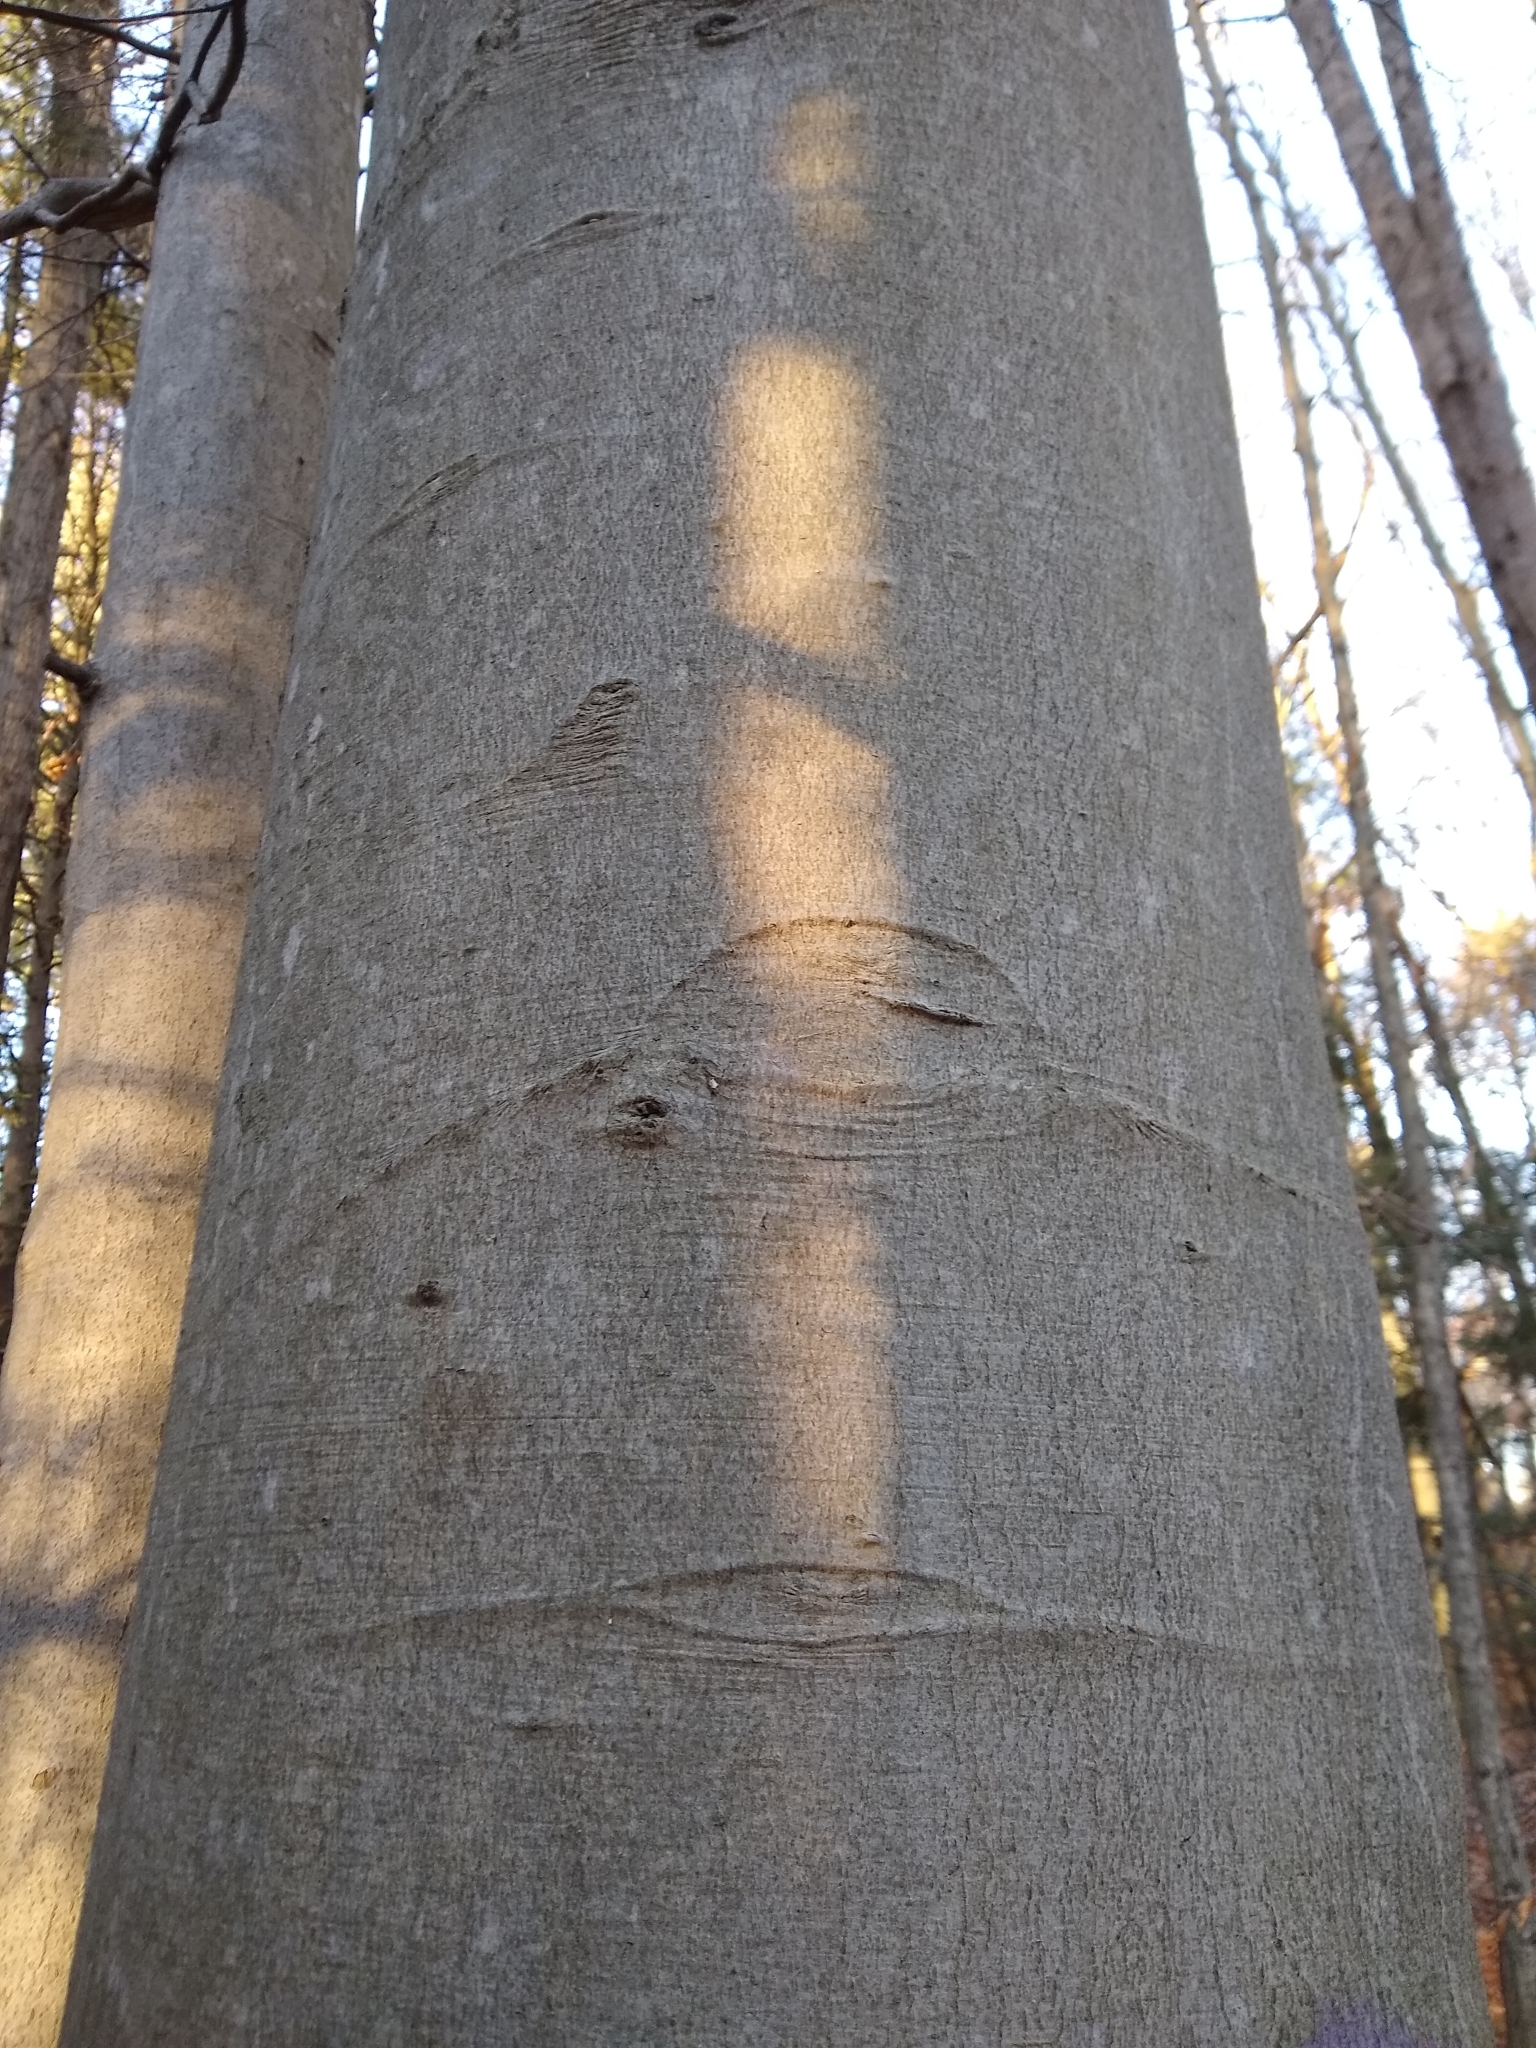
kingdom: Plantae
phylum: Tracheophyta
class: Magnoliopsida
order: Fagales
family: Fagaceae
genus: Fagus
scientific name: Fagus grandifolia
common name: American beech
